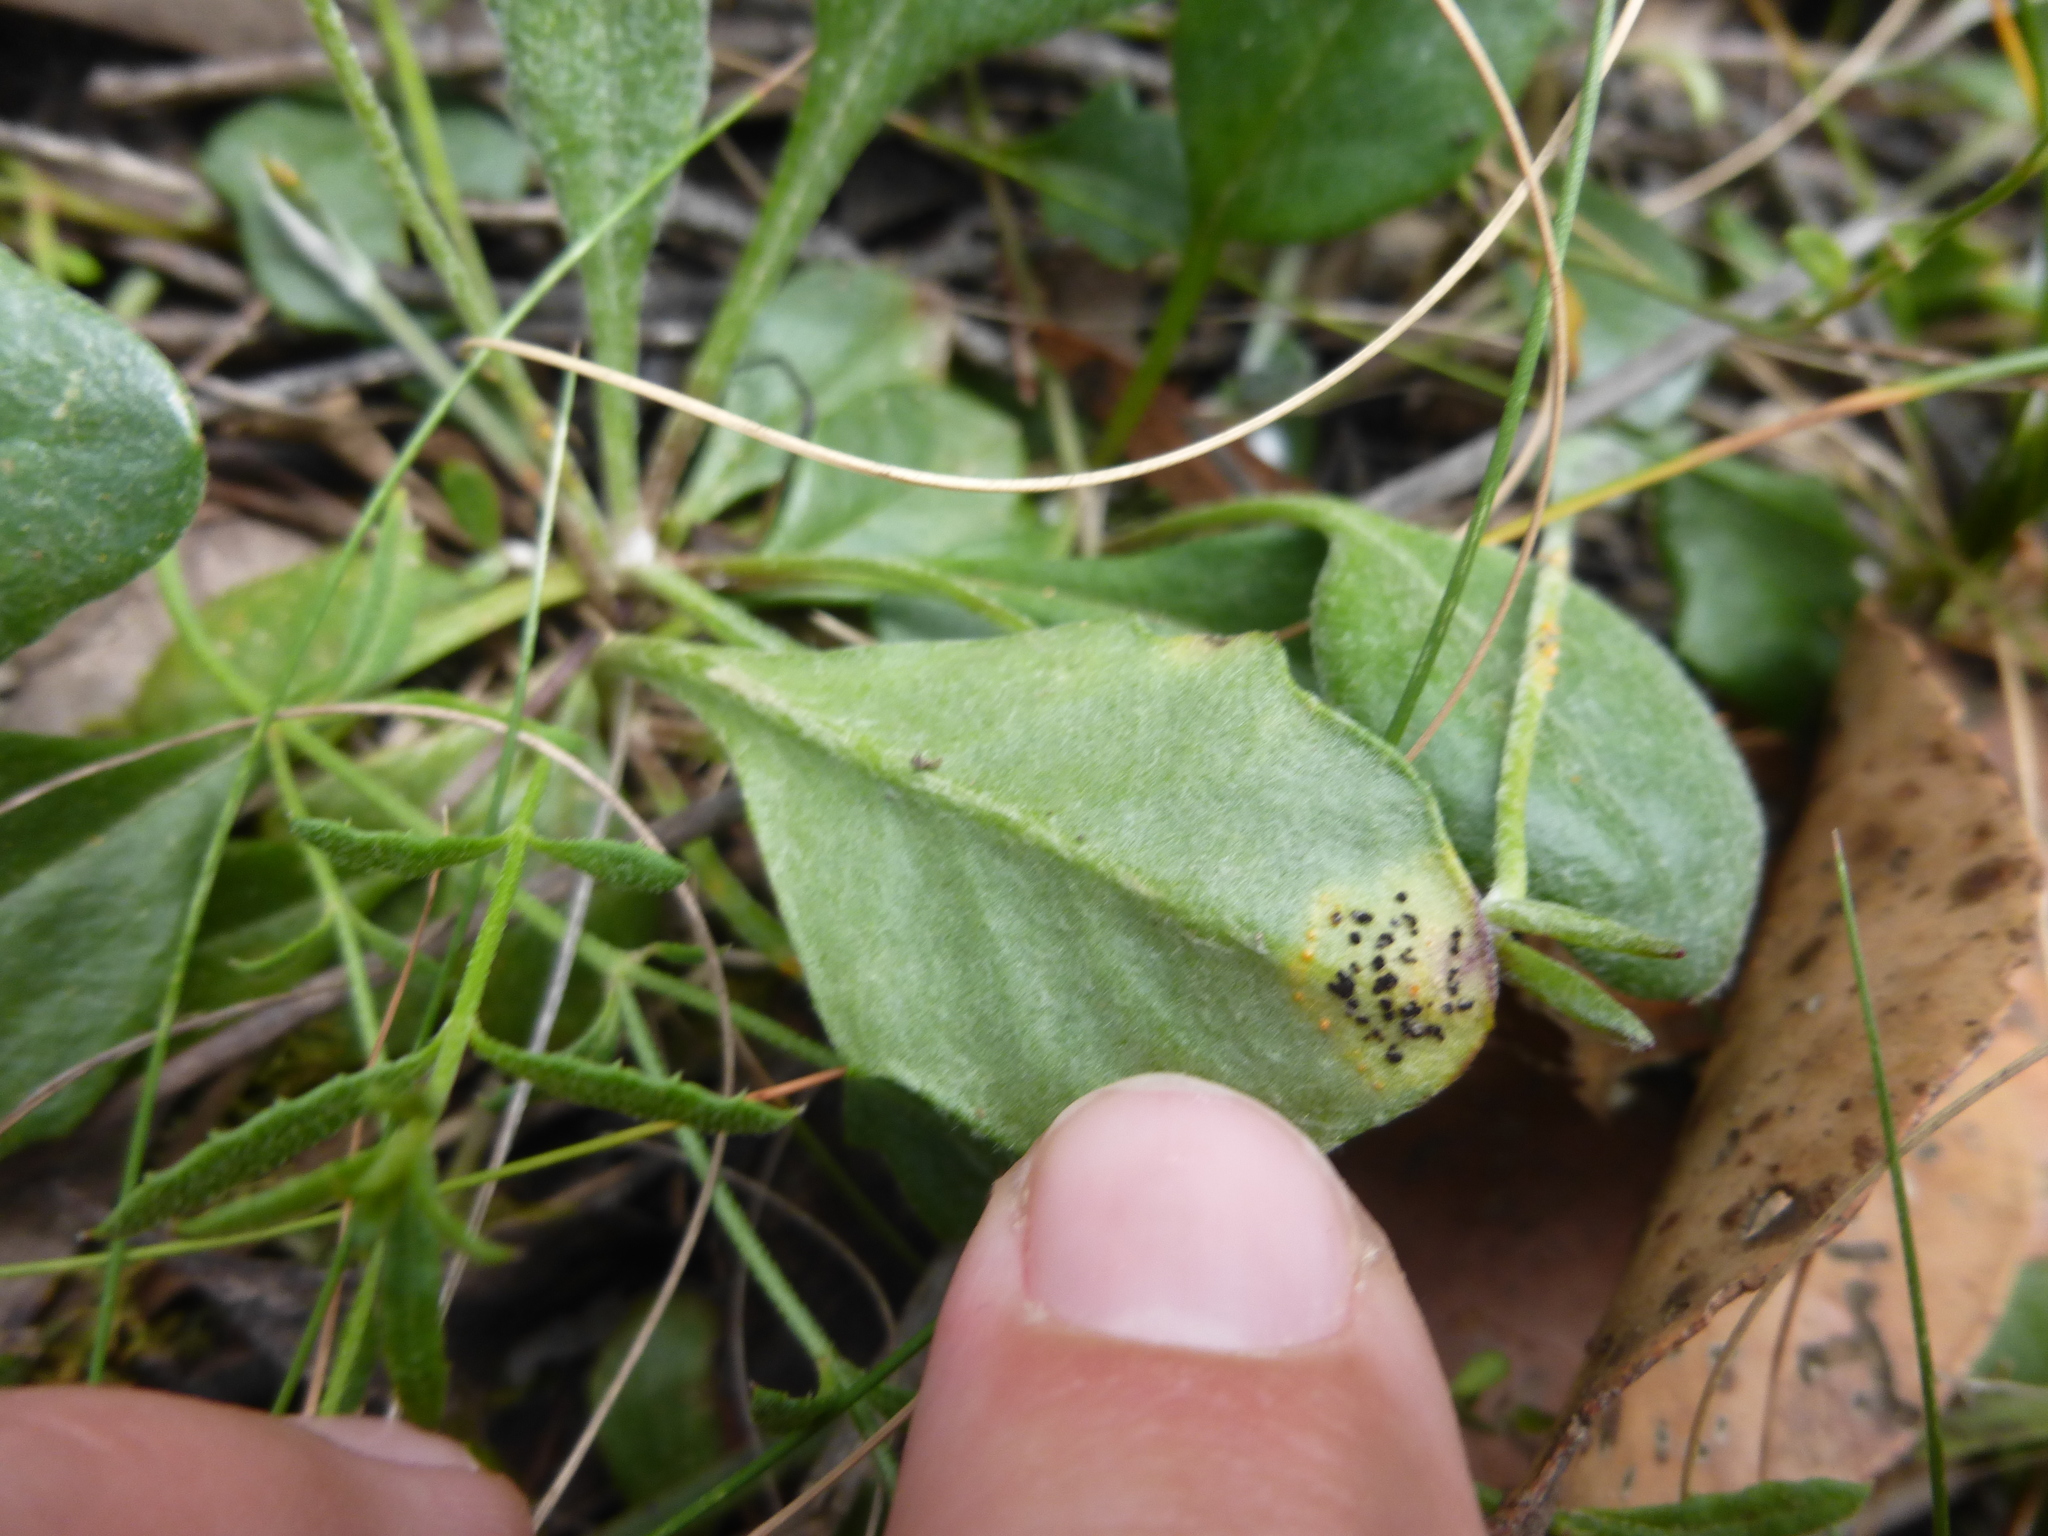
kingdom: Plantae
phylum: Tracheophyta
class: Magnoliopsida
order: Asterales
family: Goodeniaceae
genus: Goodenia
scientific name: Goodenia lanata
